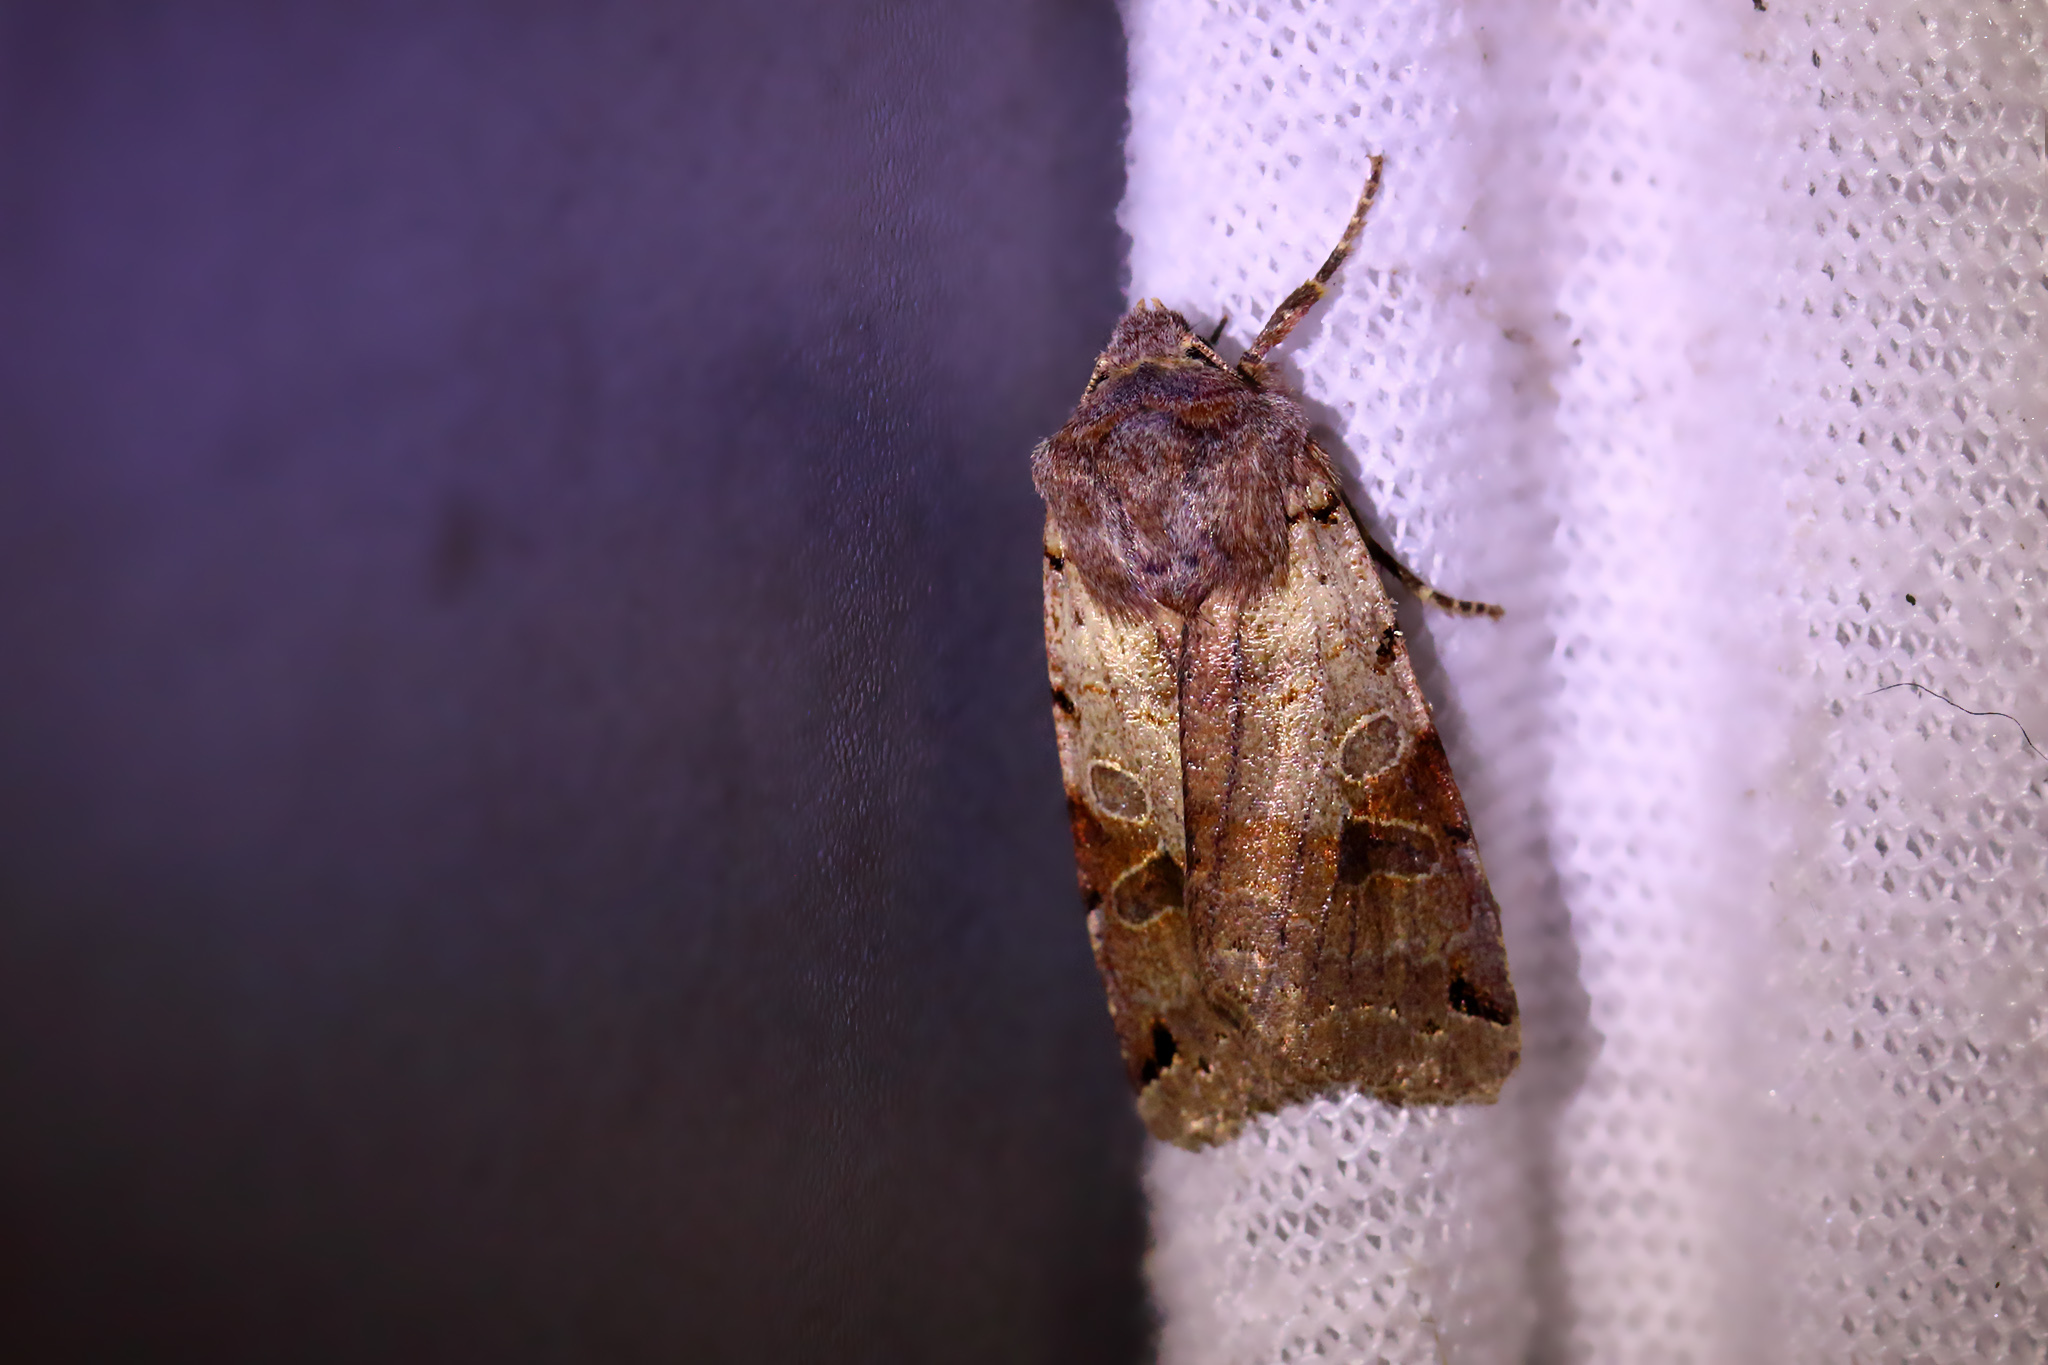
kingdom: Animalia
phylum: Arthropoda
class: Insecta
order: Lepidoptera
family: Noctuidae
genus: Agrochola
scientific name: Agrochola litura
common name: Brown-spot pinion
